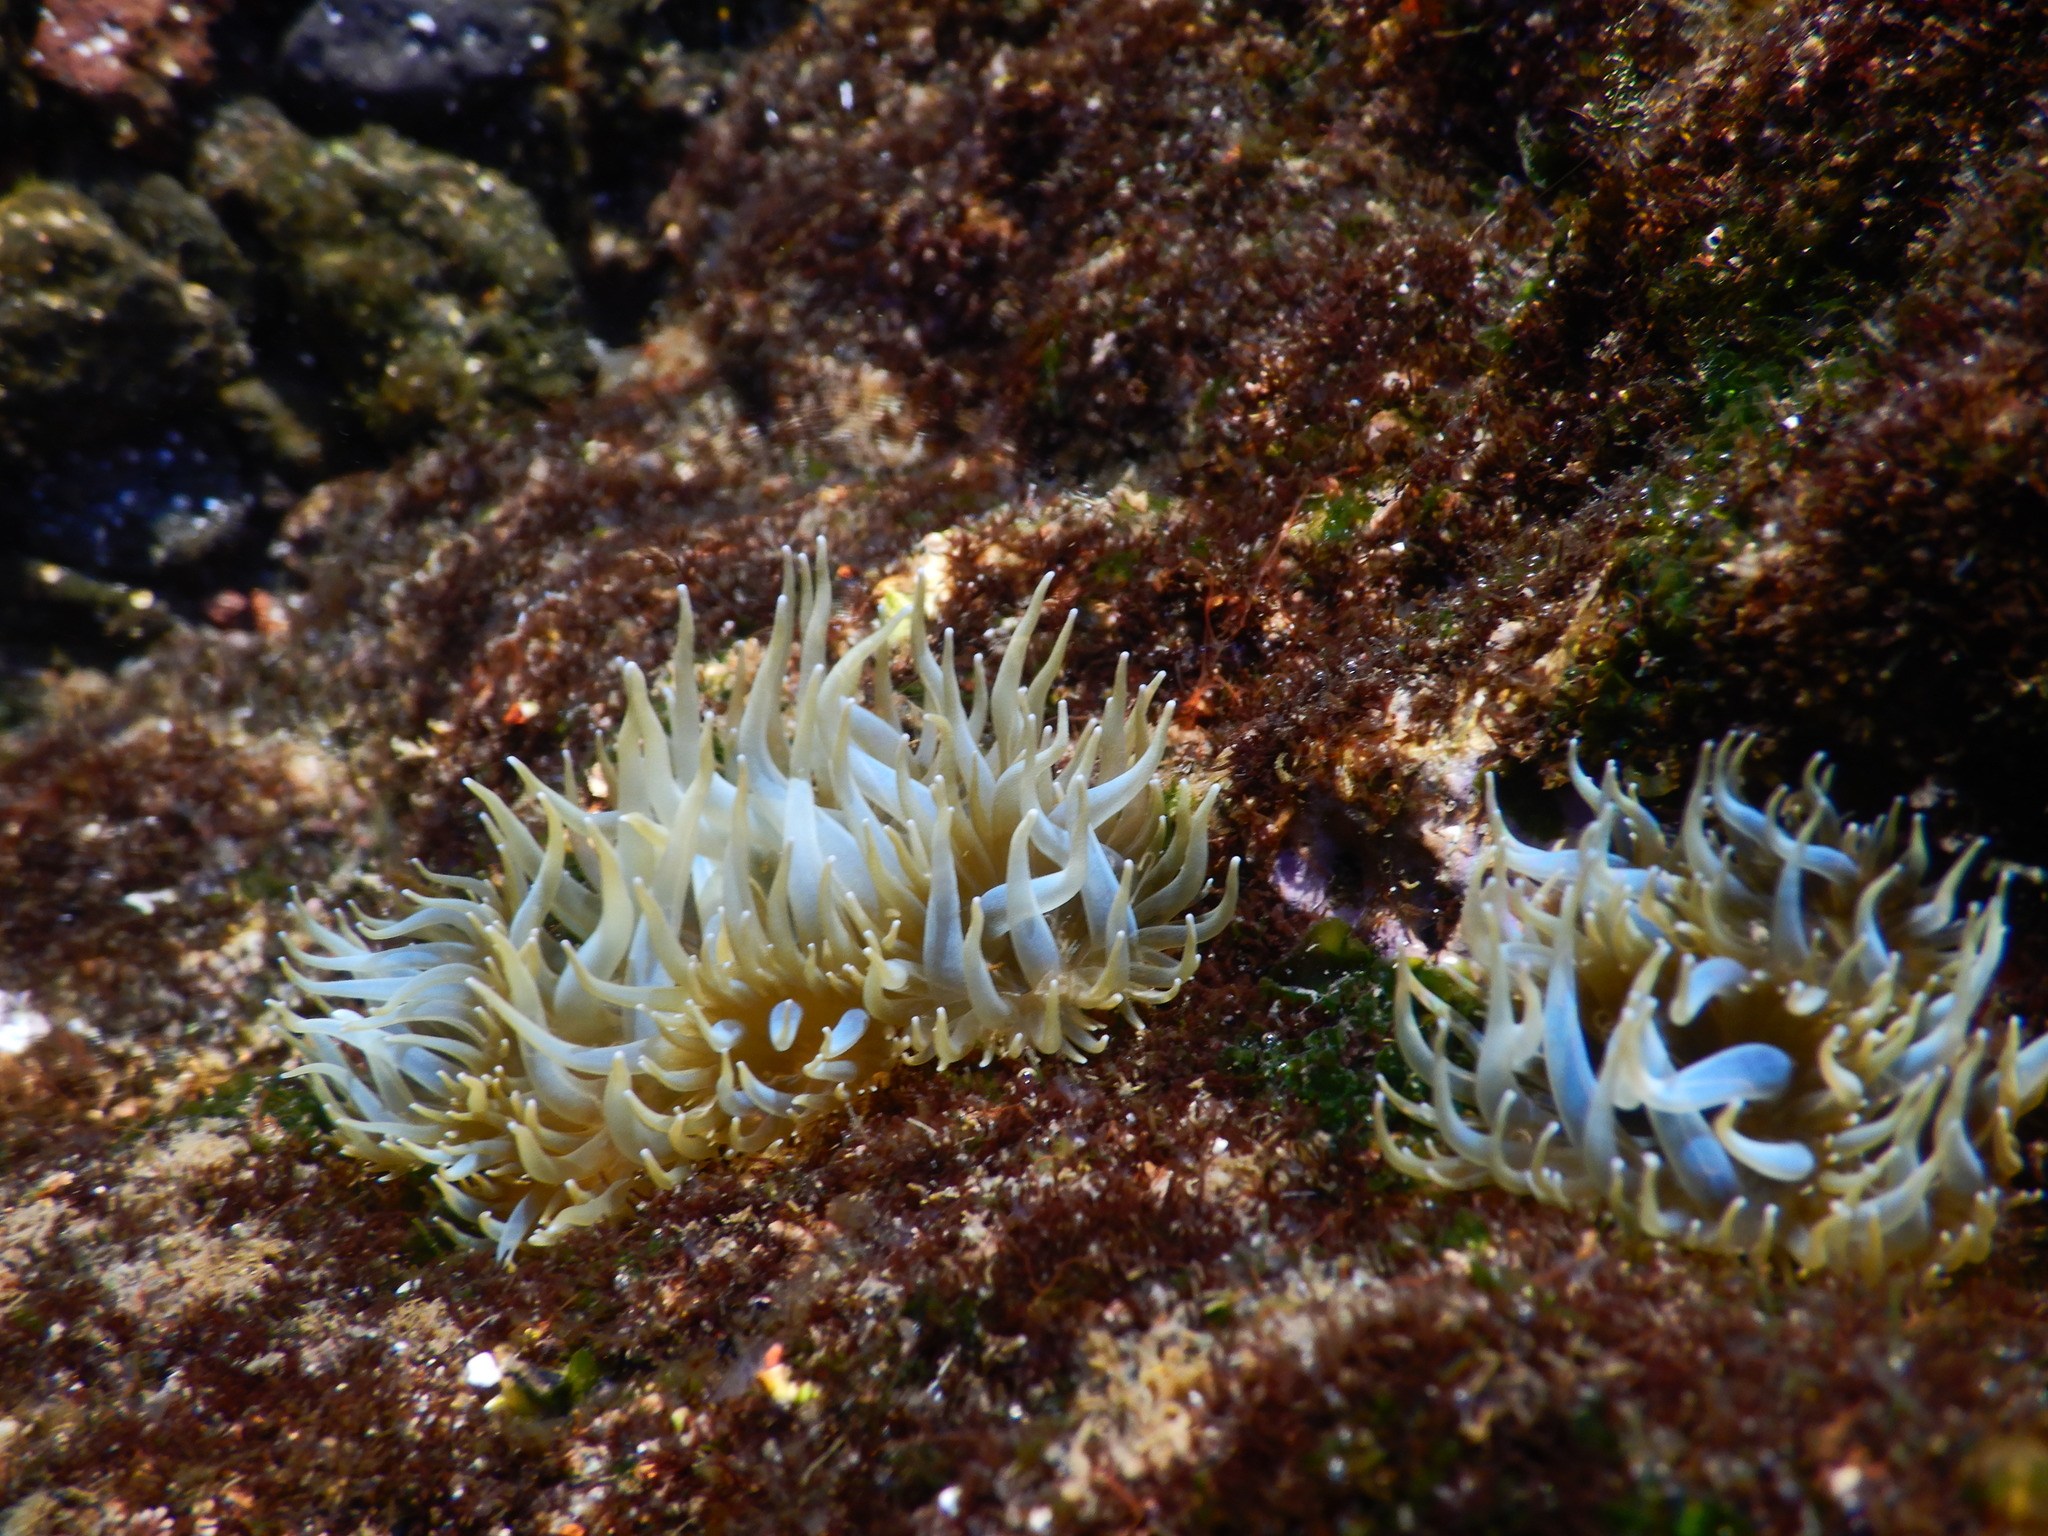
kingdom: Animalia
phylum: Cnidaria
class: Anthozoa
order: Actiniaria
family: Aiptasiidae
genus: Aiptasia
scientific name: Aiptasia couchii
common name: Trumpet anemone
